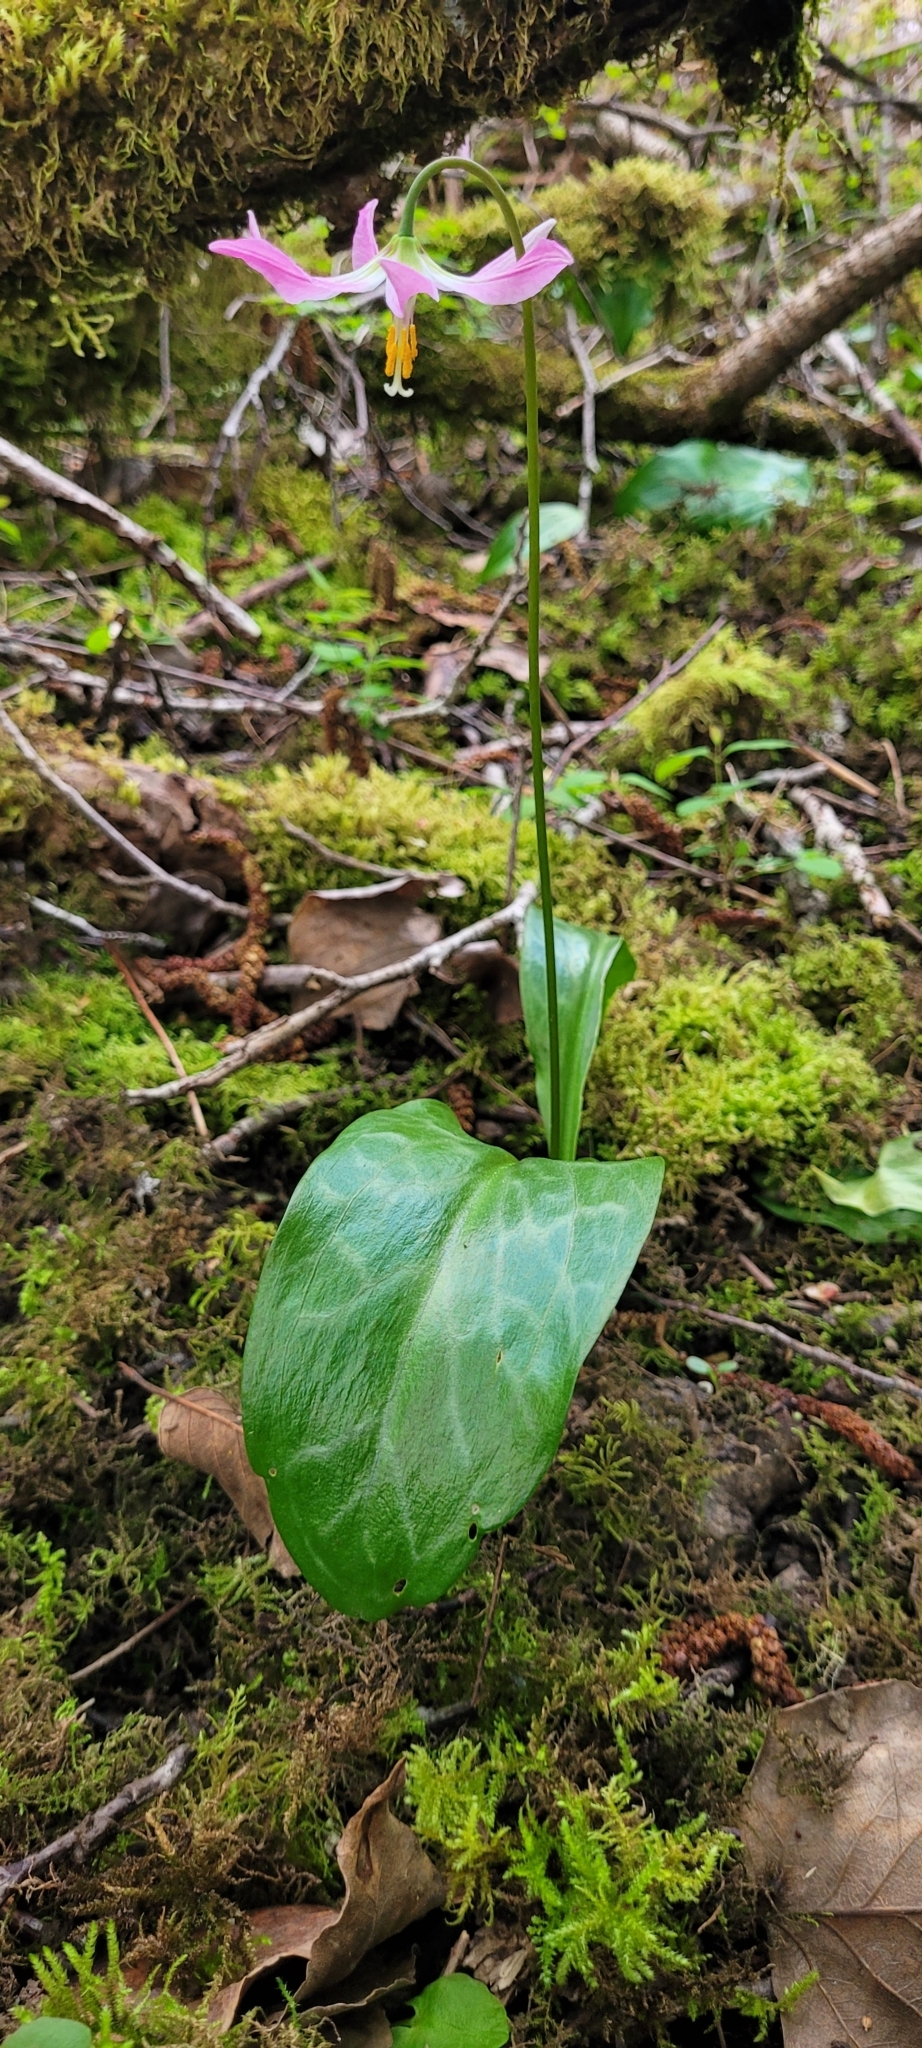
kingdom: Plantae
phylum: Tracheophyta
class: Liliopsida
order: Liliales
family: Liliaceae
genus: Erythronium
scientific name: Erythronium revolutum
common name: Pink fawn-lily
